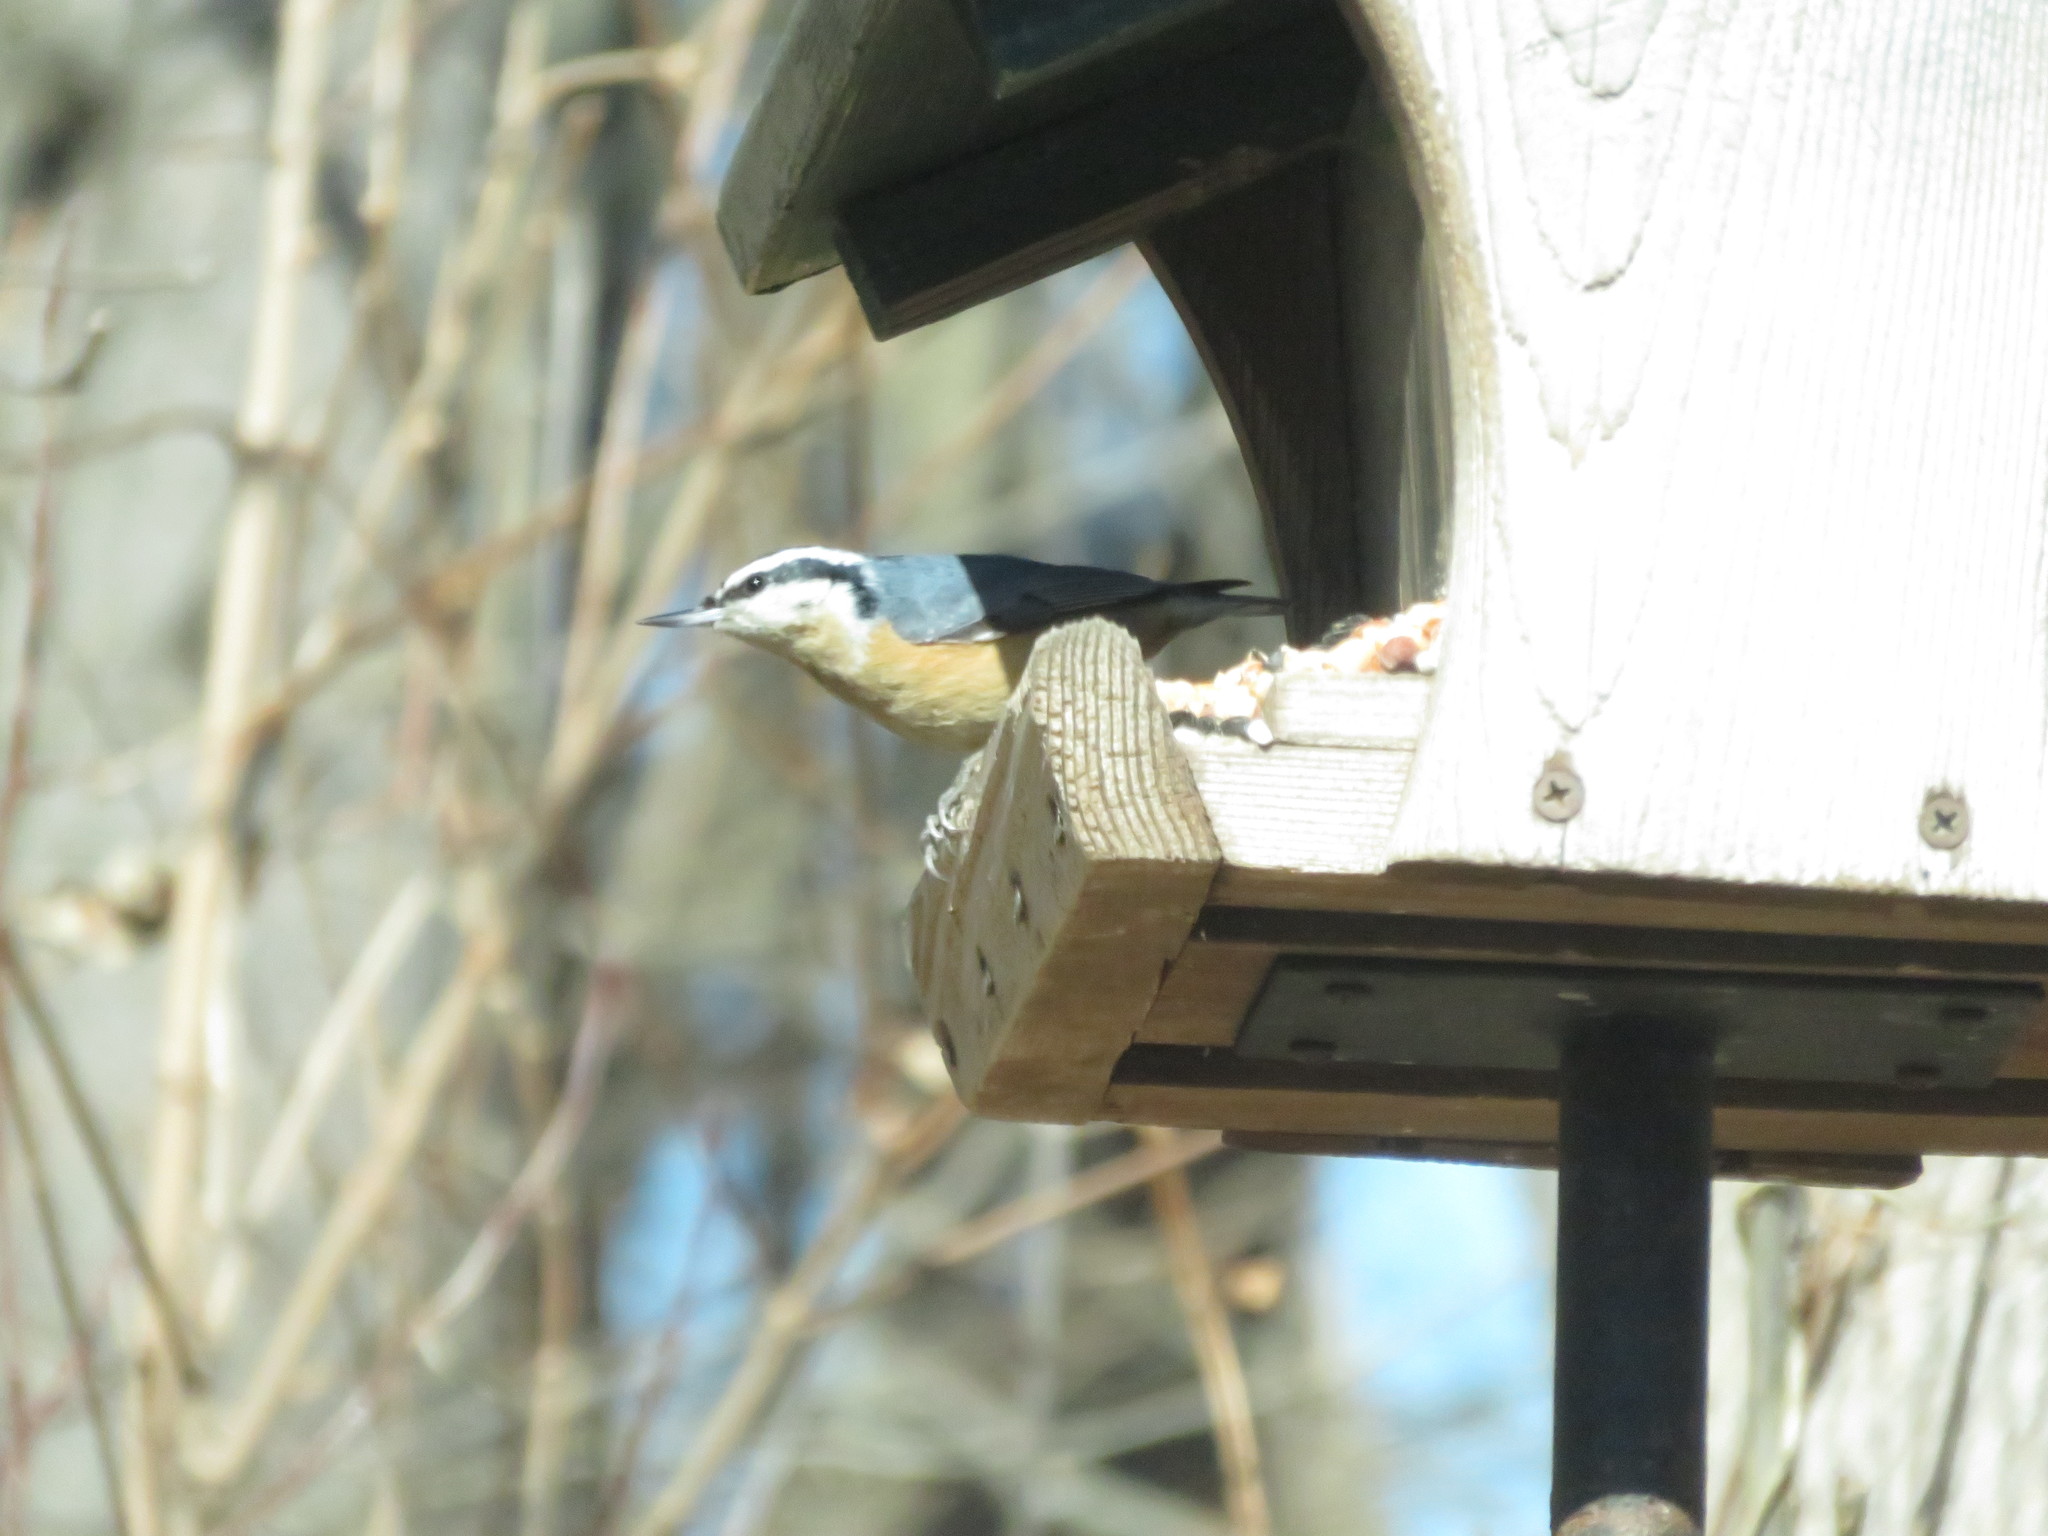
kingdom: Animalia
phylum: Chordata
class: Aves
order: Passeriformes
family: Sittidae
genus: Sitta
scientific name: Sitta canadensis
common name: Red-breasted nuthatch
